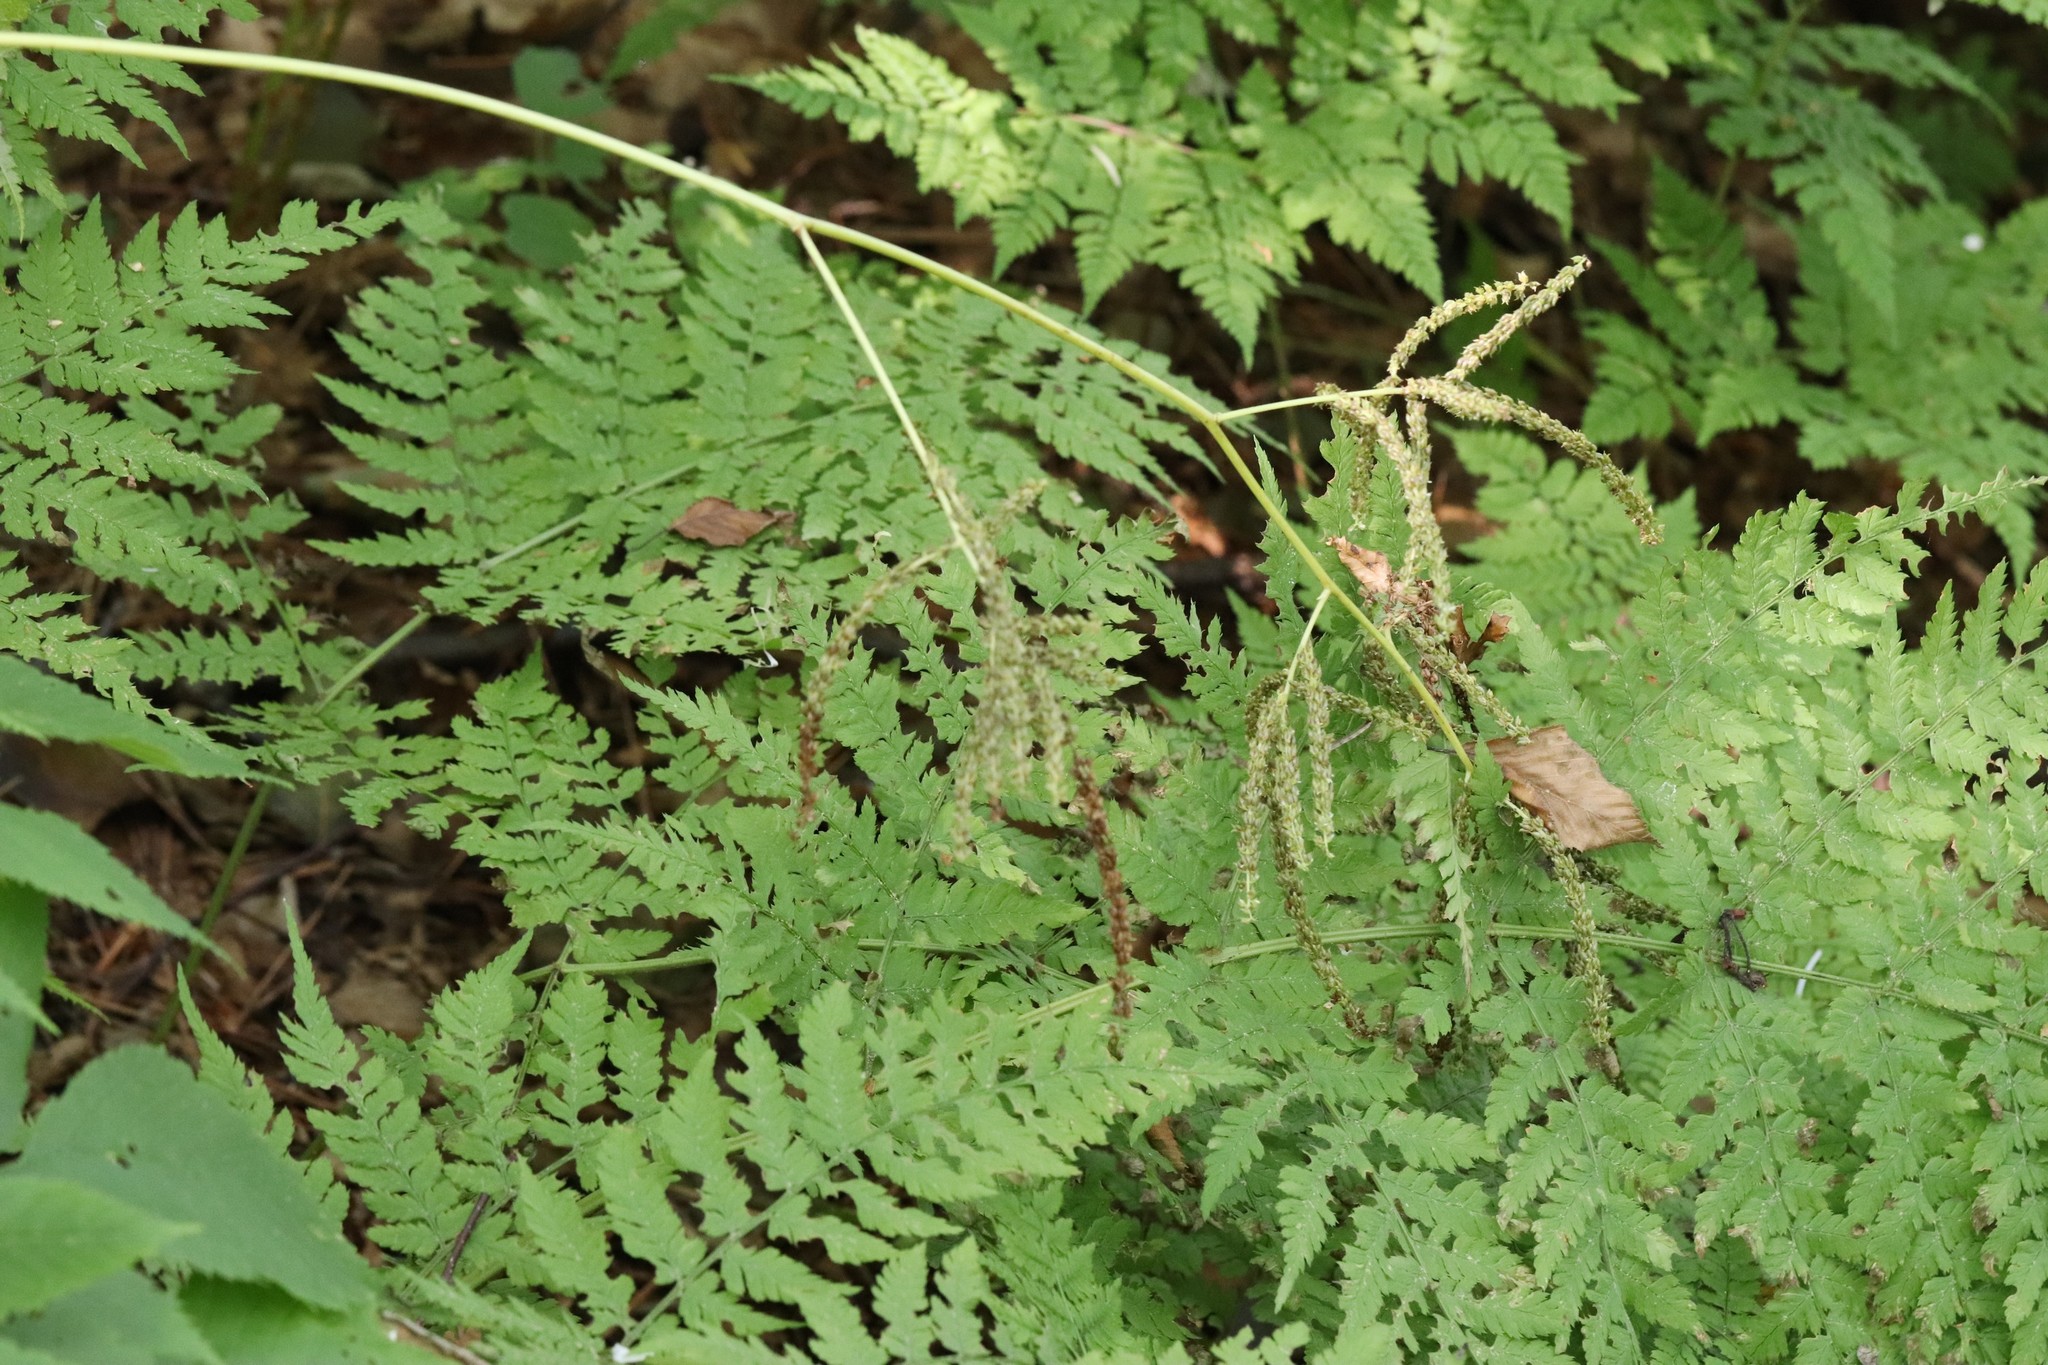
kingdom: Plantae
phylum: Tracheophyta
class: Magnoliopsida
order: Rosales
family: Rosaceae
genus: Aruncus
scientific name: Aruncus dioicus
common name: Buck's-beard
